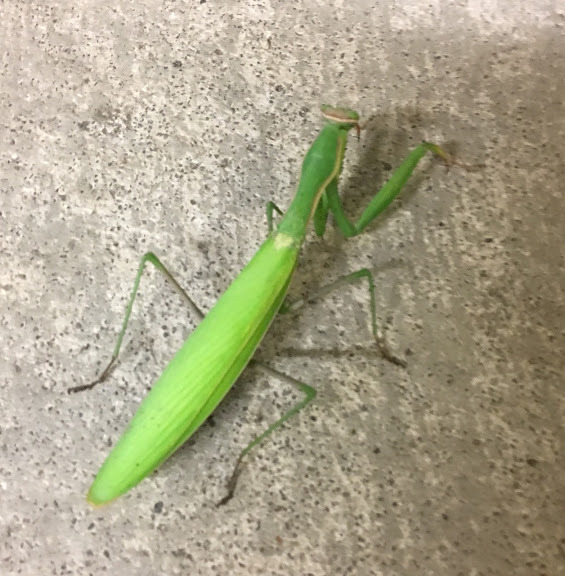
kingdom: Animalia
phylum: Arthropoda
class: Insecta
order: Mantodea
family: Mantidae
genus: Mantis
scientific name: Mantis religiosa
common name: Praying mantis
